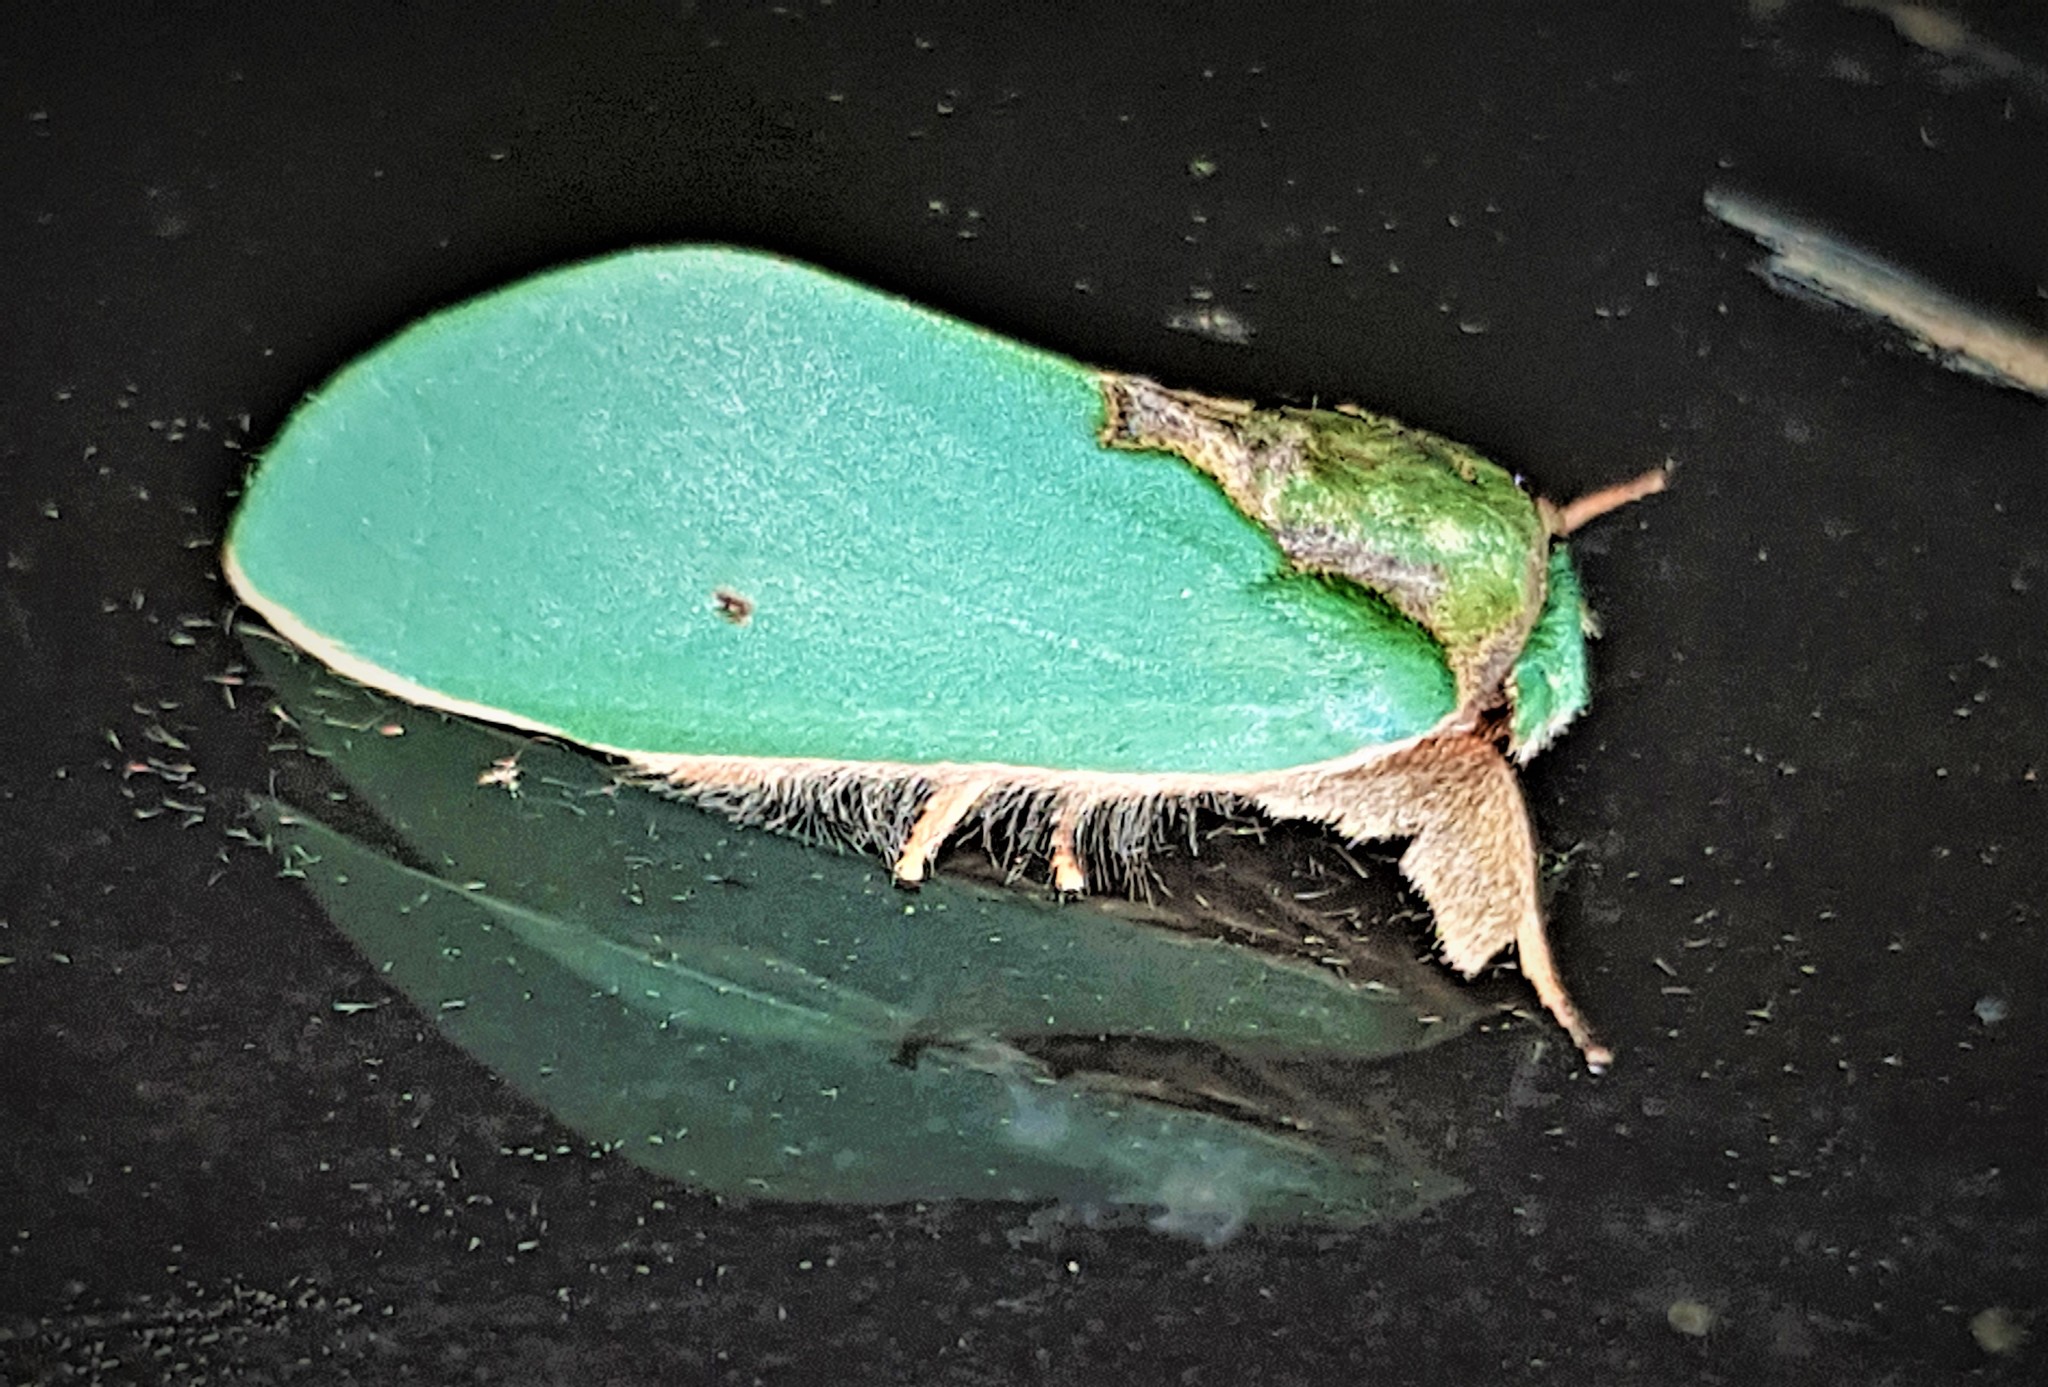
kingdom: Animalia
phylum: Arthropoda
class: Insecta
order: Lepidoptera
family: Notodontidae
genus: Rosema
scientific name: Rosema myops
